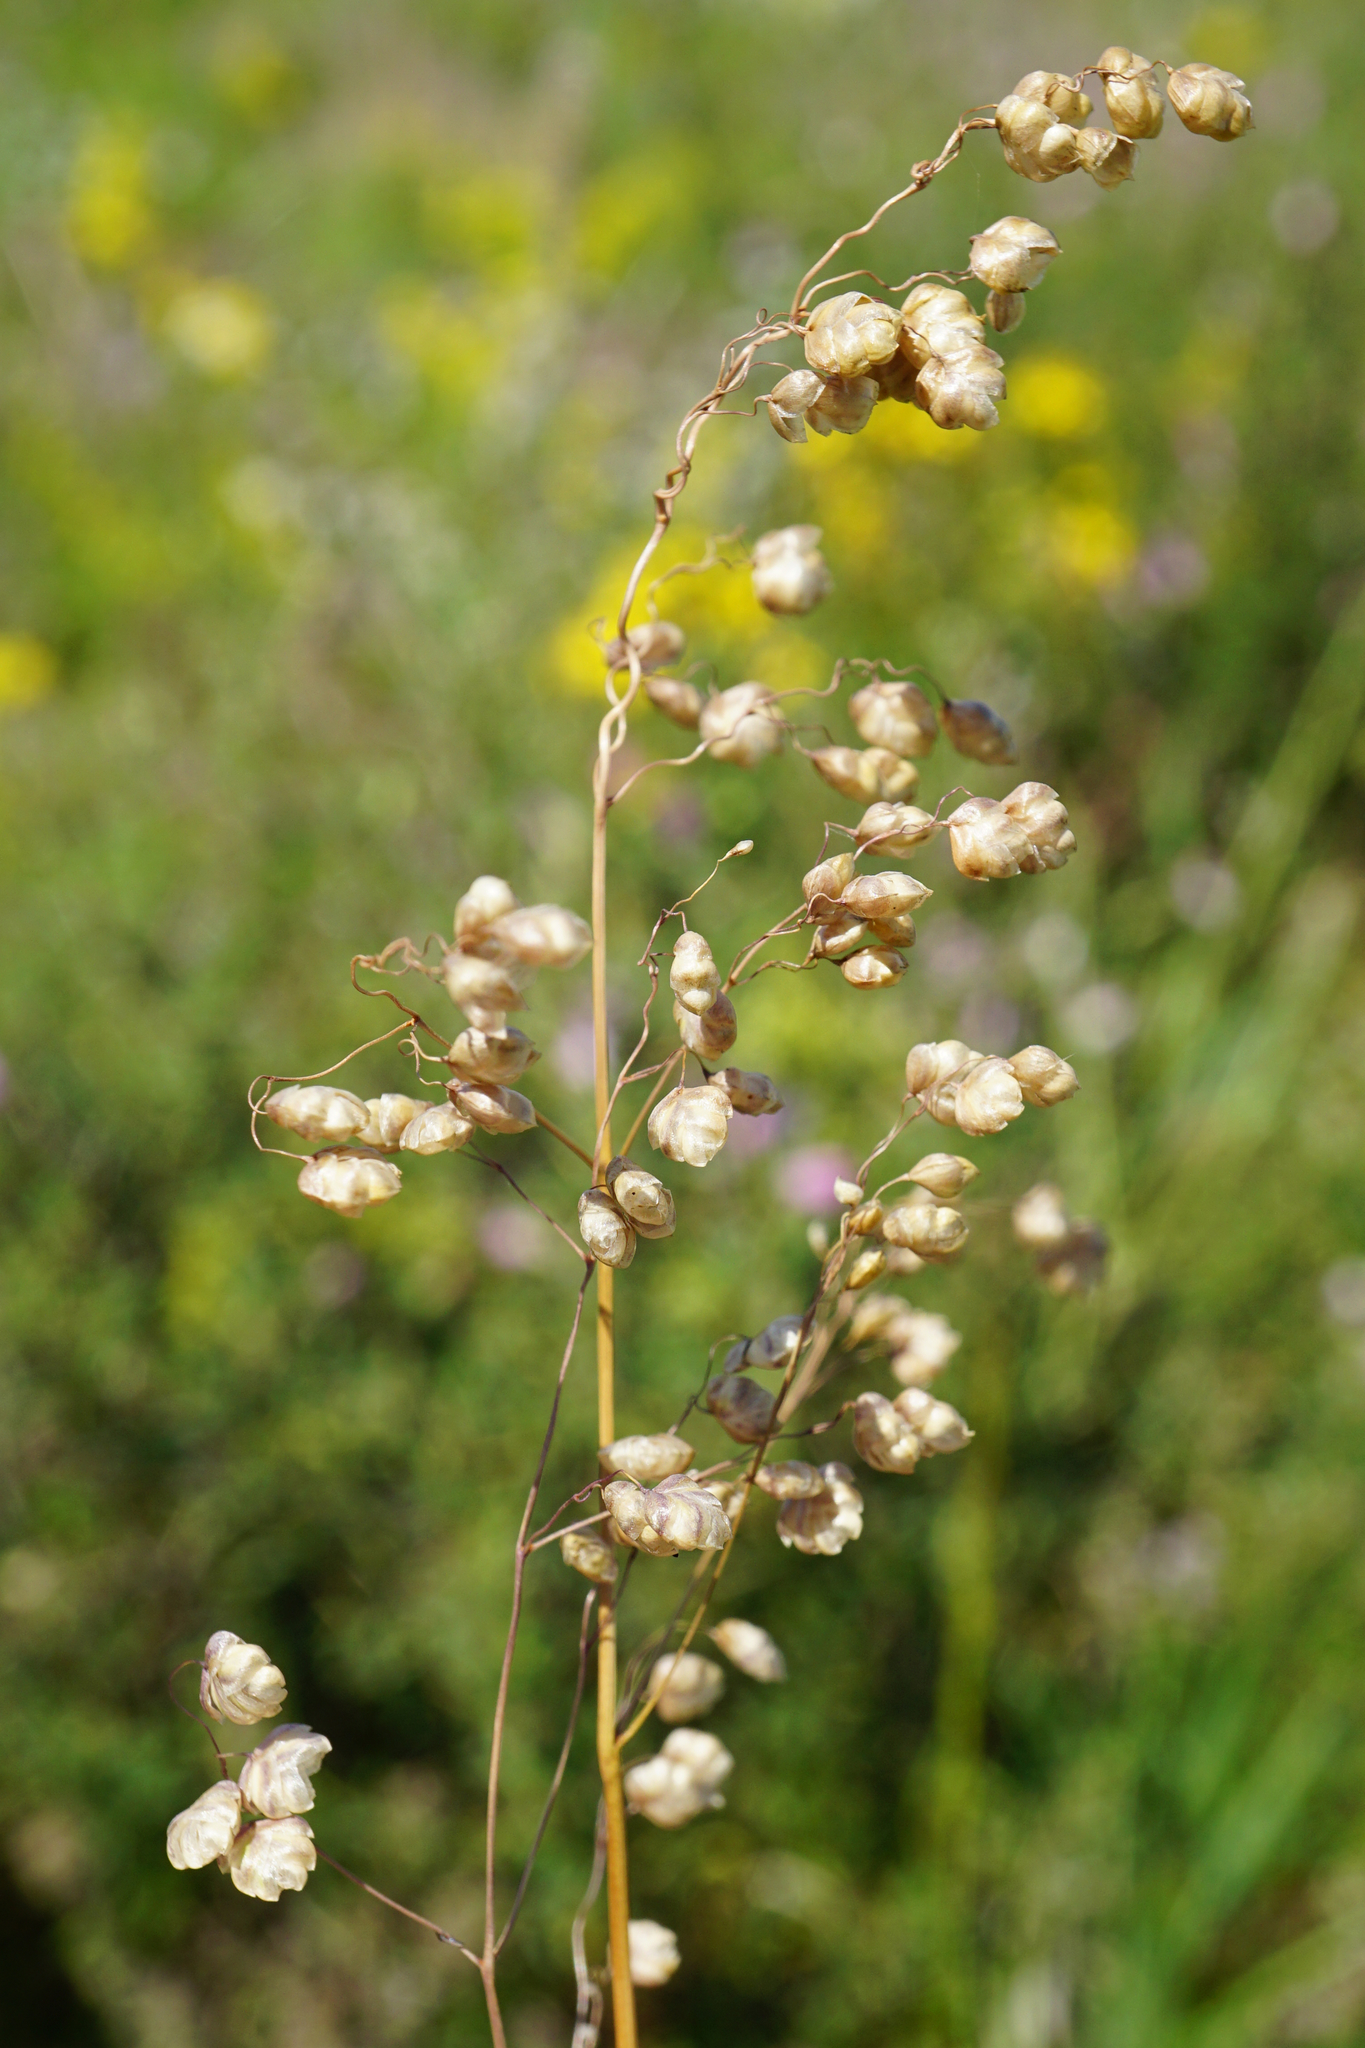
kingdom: Plantae
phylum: Tracheophyta
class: Liliopsida
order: Poales
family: Poaceae
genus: Briza
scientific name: Briza media
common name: Quaking grass
